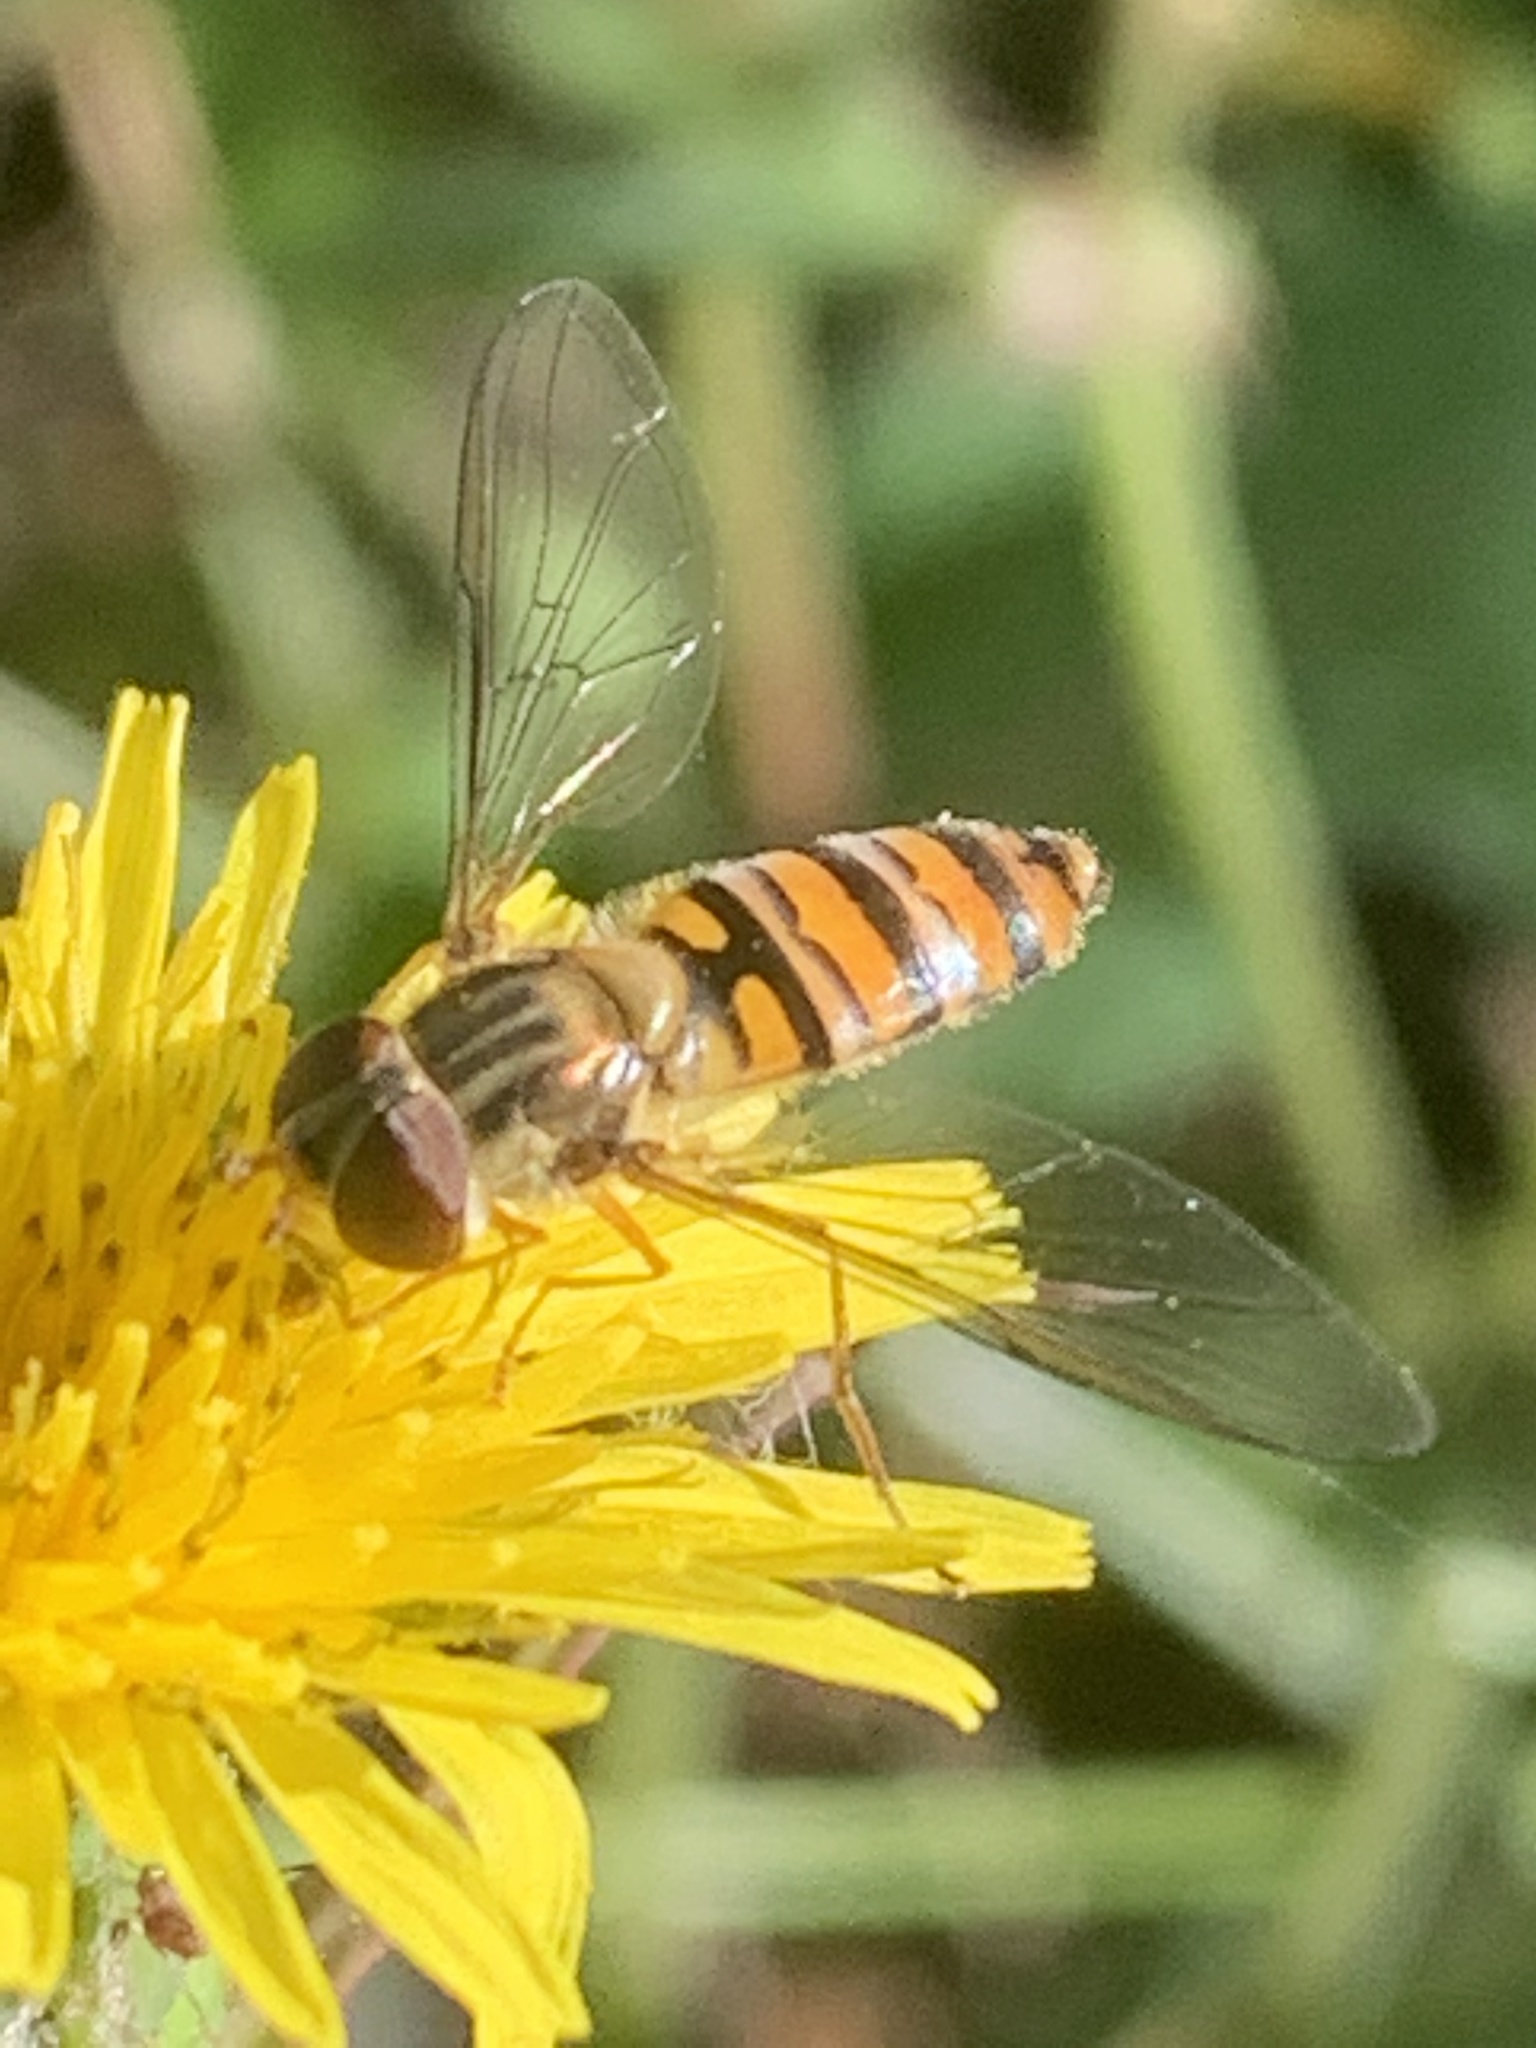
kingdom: Animalia
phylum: Arthropoda
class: Insecta
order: Diptera
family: Syrphidae
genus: Episyrphus
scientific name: Episyrphus balteatus
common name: Marmalade hoverfly
